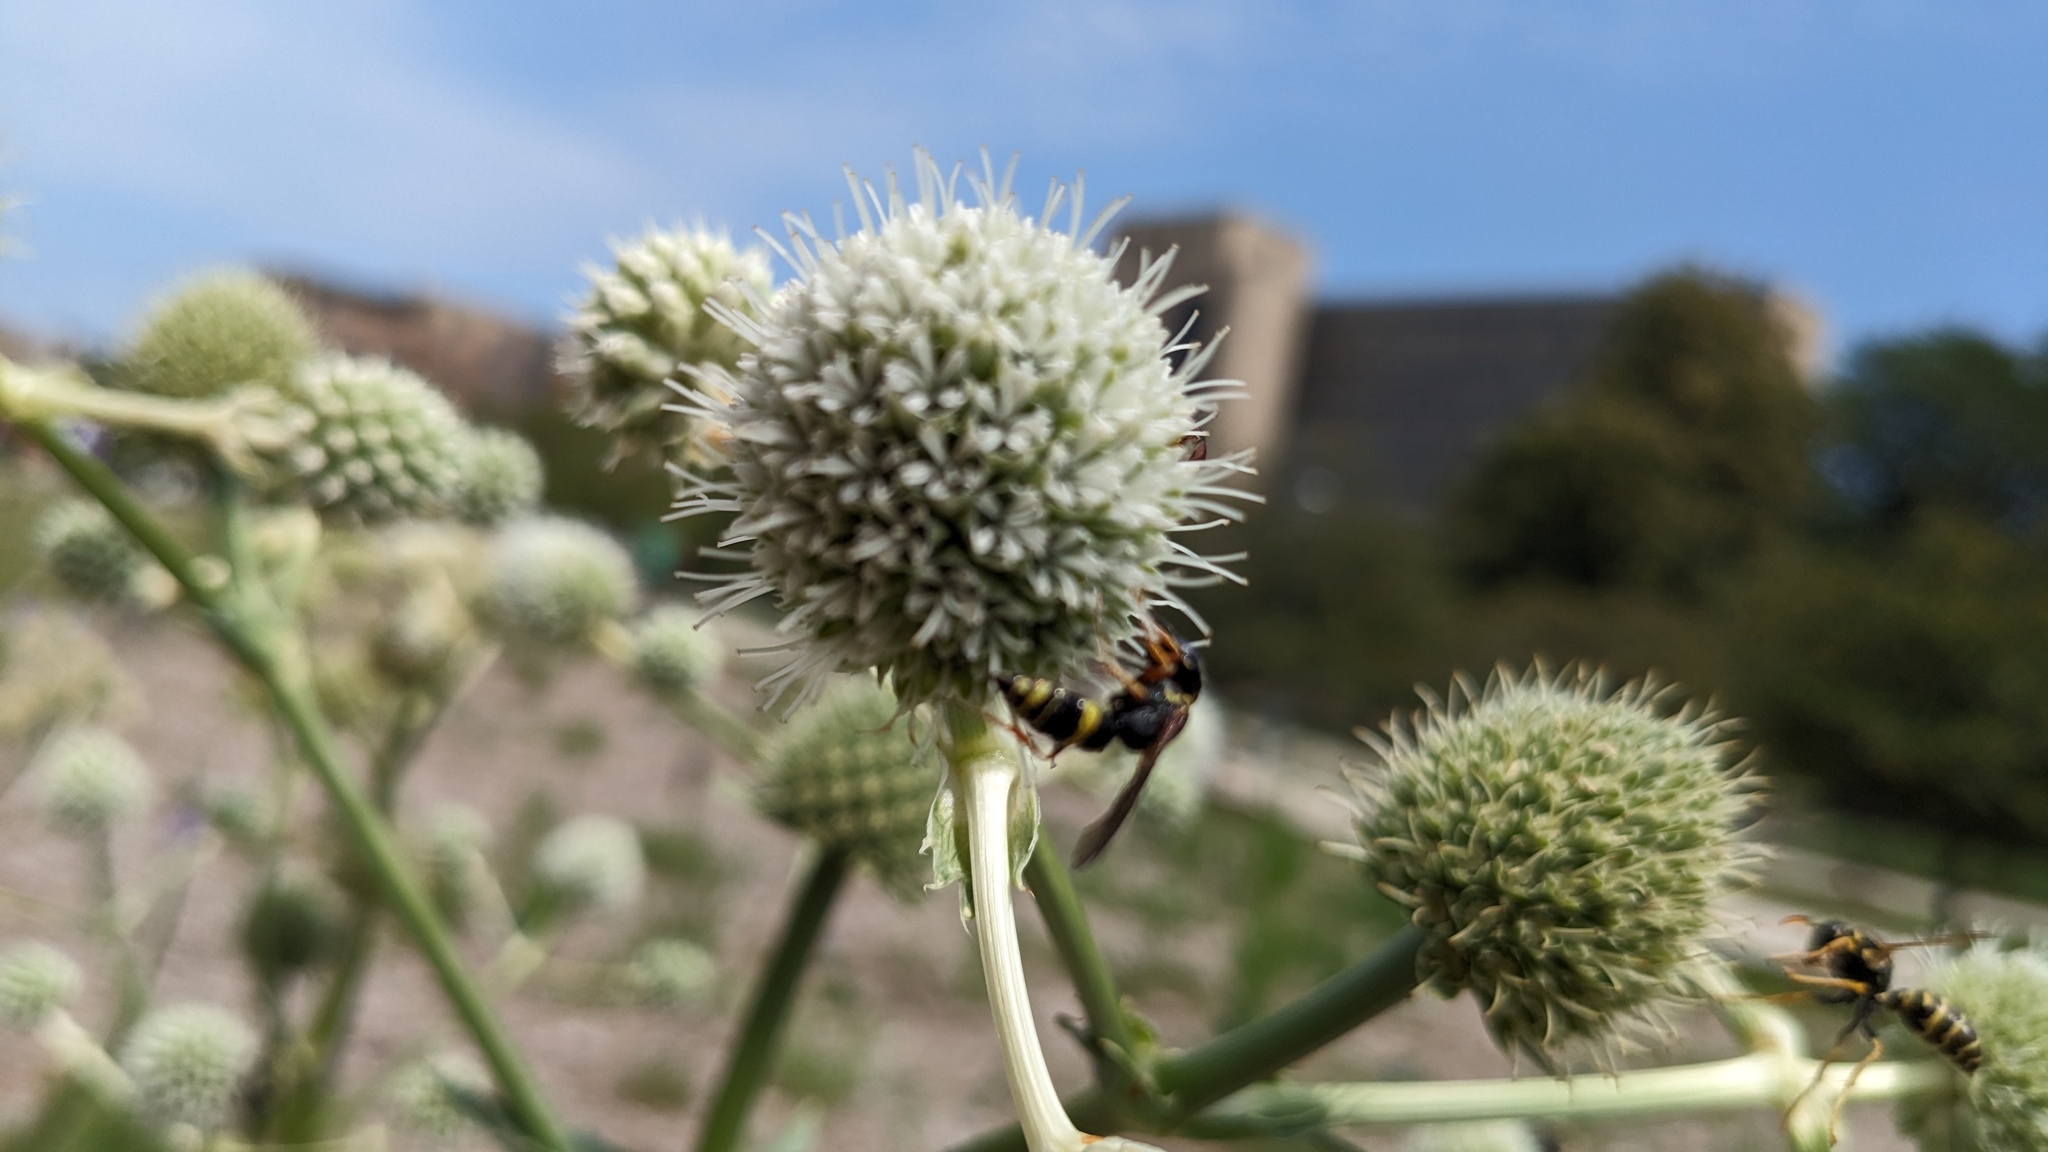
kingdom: Animalia
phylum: Arthropoda
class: Insecta
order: Hymenoptera
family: Crabronidae
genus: Philanthus
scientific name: Philanthus gibbosus
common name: Humped beewolf
